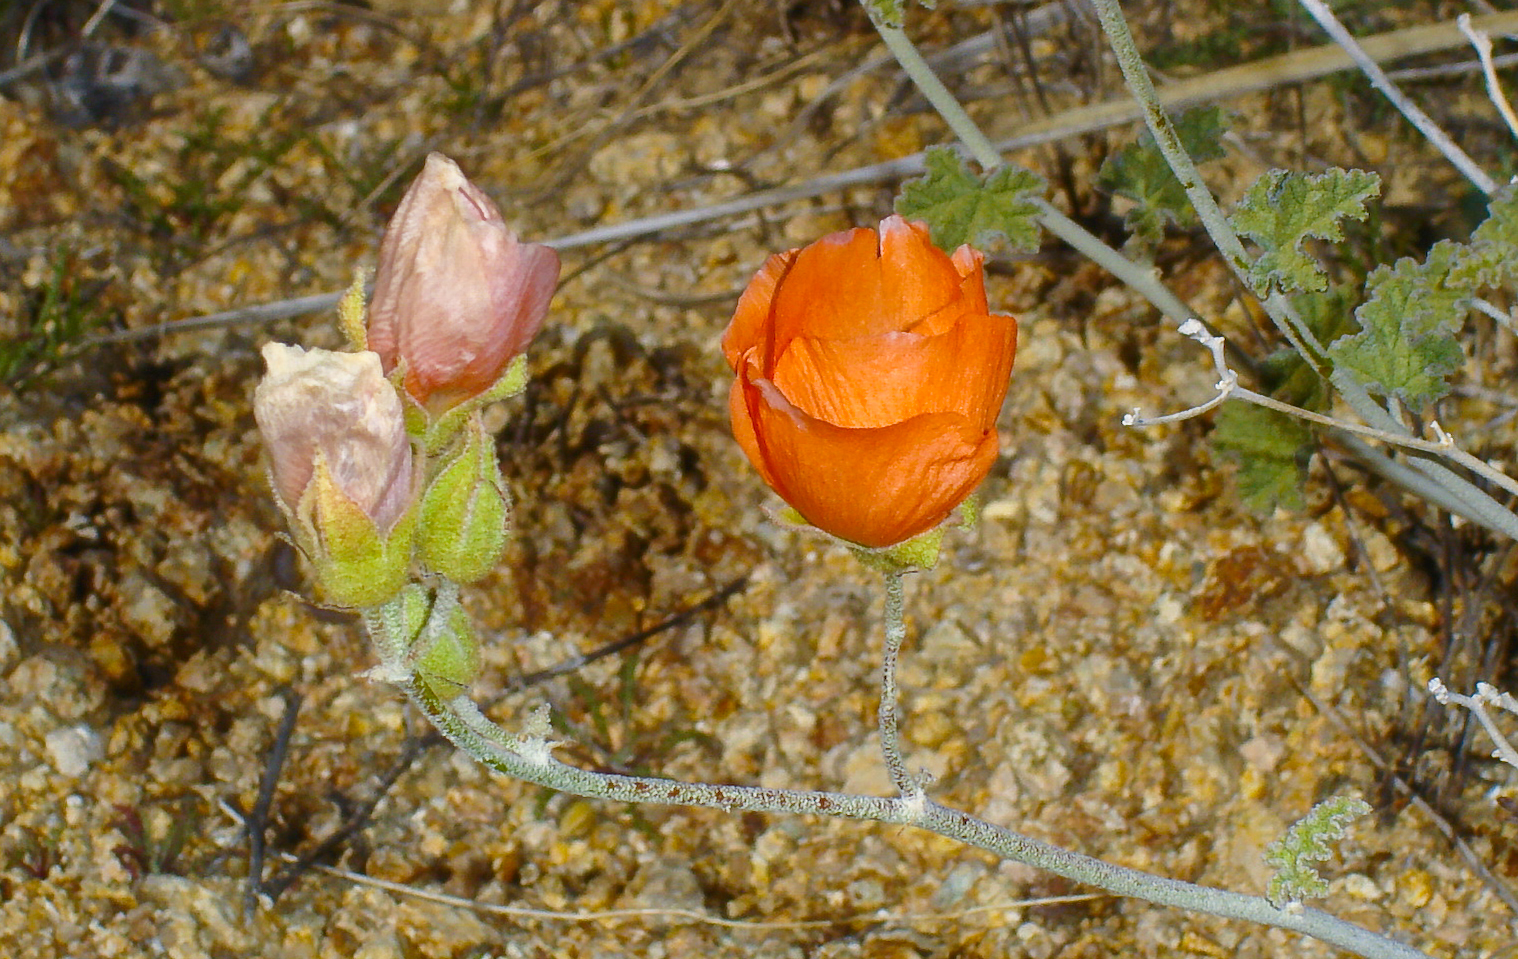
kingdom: Plantae
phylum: Tracheophyta
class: Magnoliopsida
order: Malvales
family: Malvaceae
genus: Sphaeralcea
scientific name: Sphaeralcea ambigua
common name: Apricot globe-mallow
